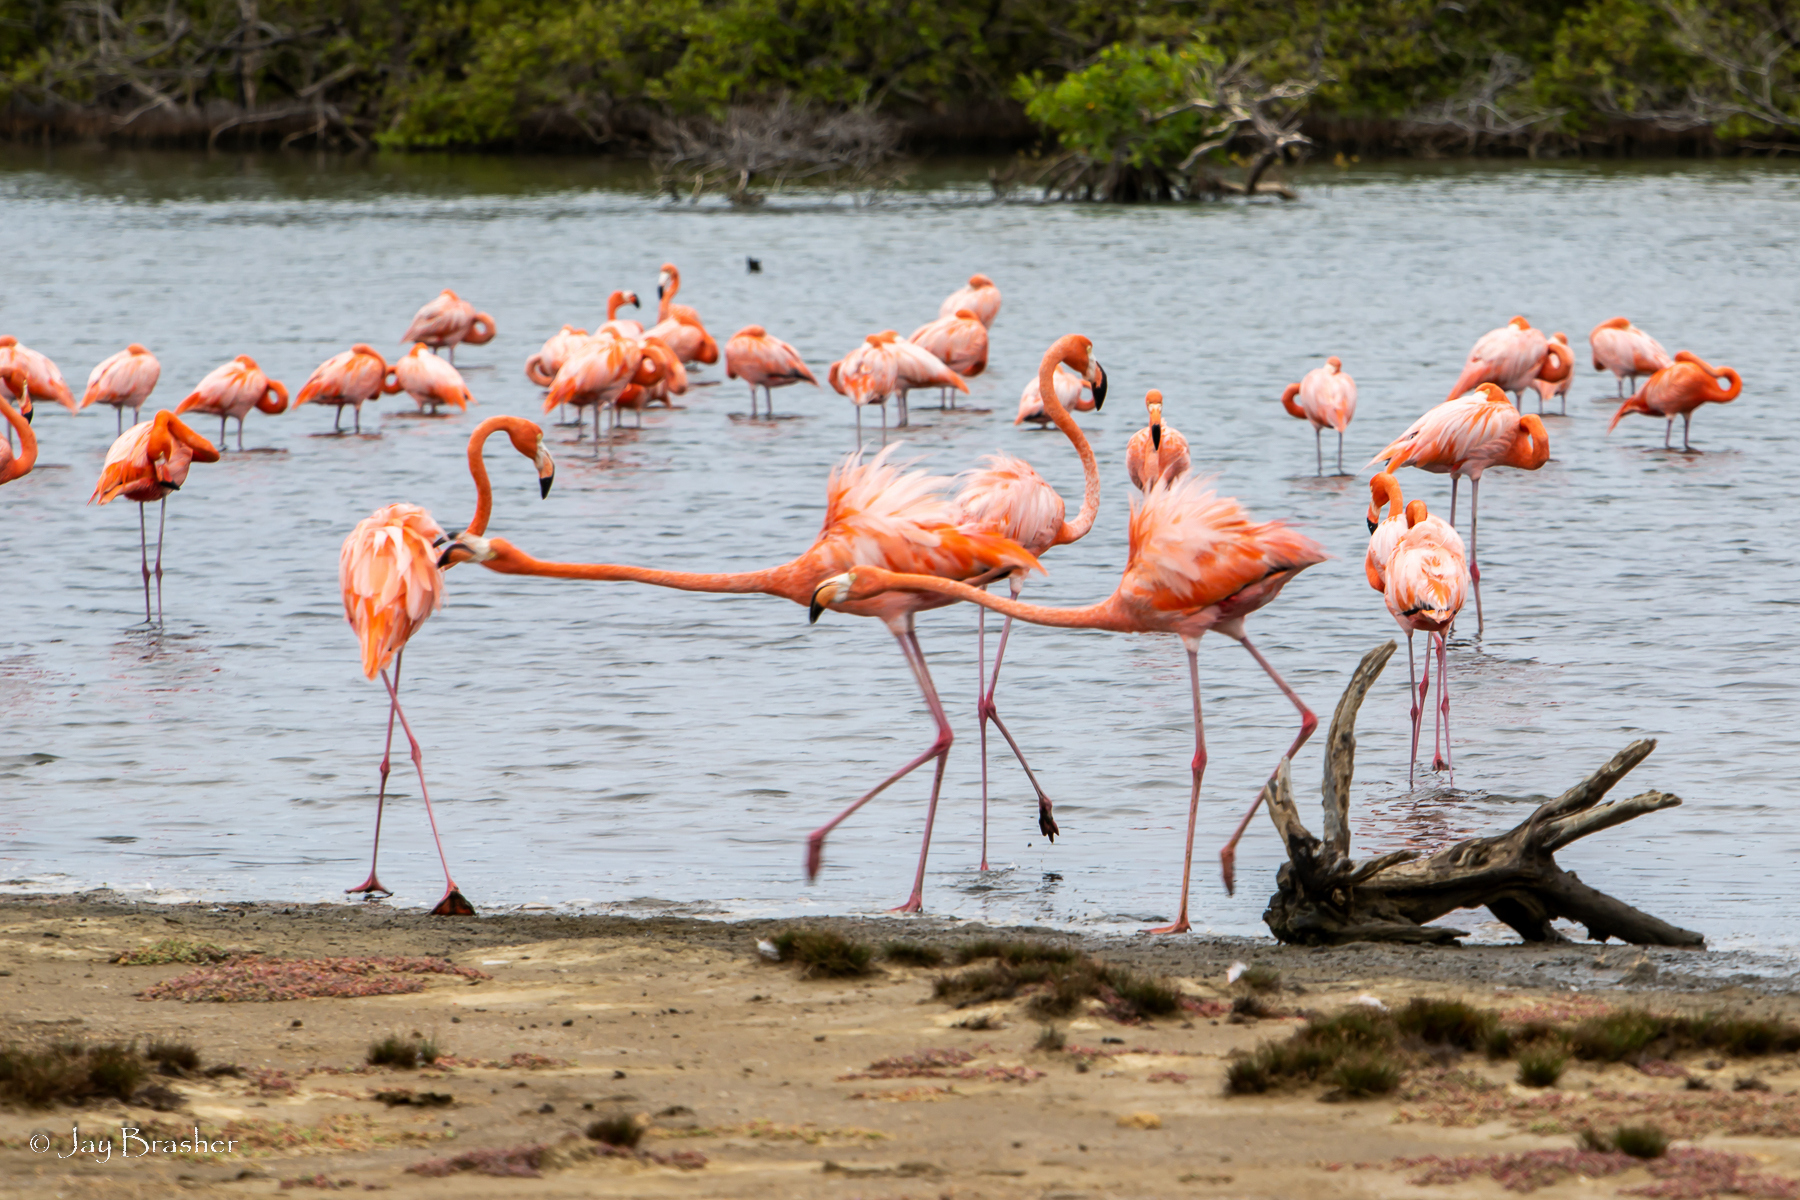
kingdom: Animalia
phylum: Chordata
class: Aves
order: Phoenicopteriformes
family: Phoenicopteridae
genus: Phoenicopterus
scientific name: Phoenicopterus ruber
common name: American flamingo
